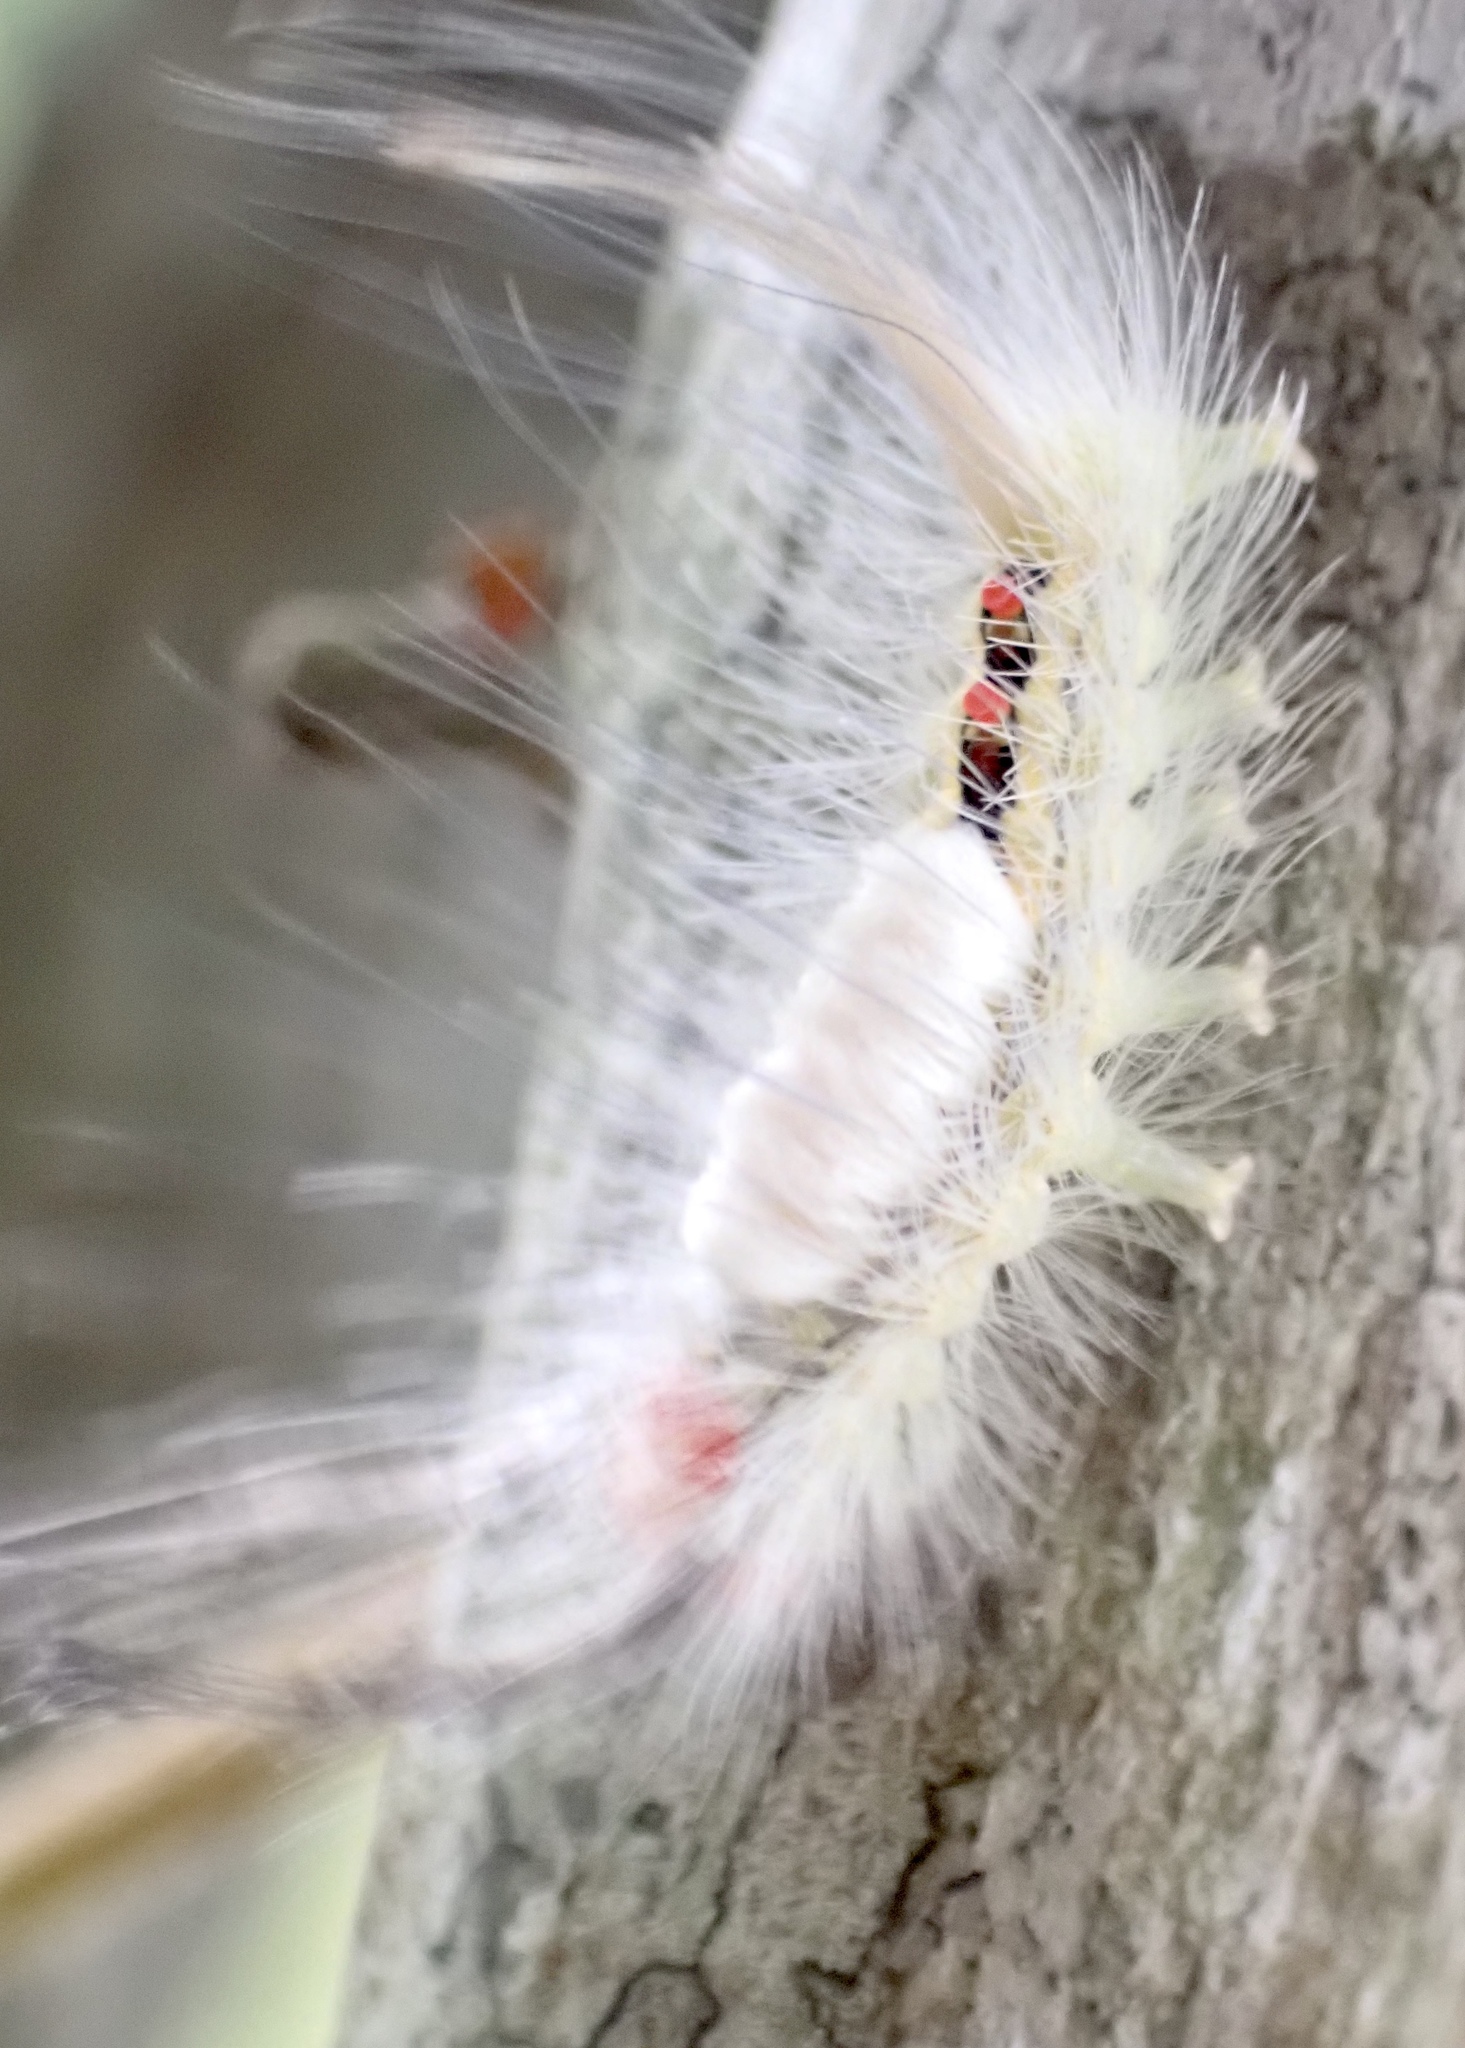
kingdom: Animalia
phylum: Arthropoda
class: Insecta
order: Lepidoptera
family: Erebidae
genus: Orgyia
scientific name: Orgyia leucostigma
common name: White-marked tussock moth
